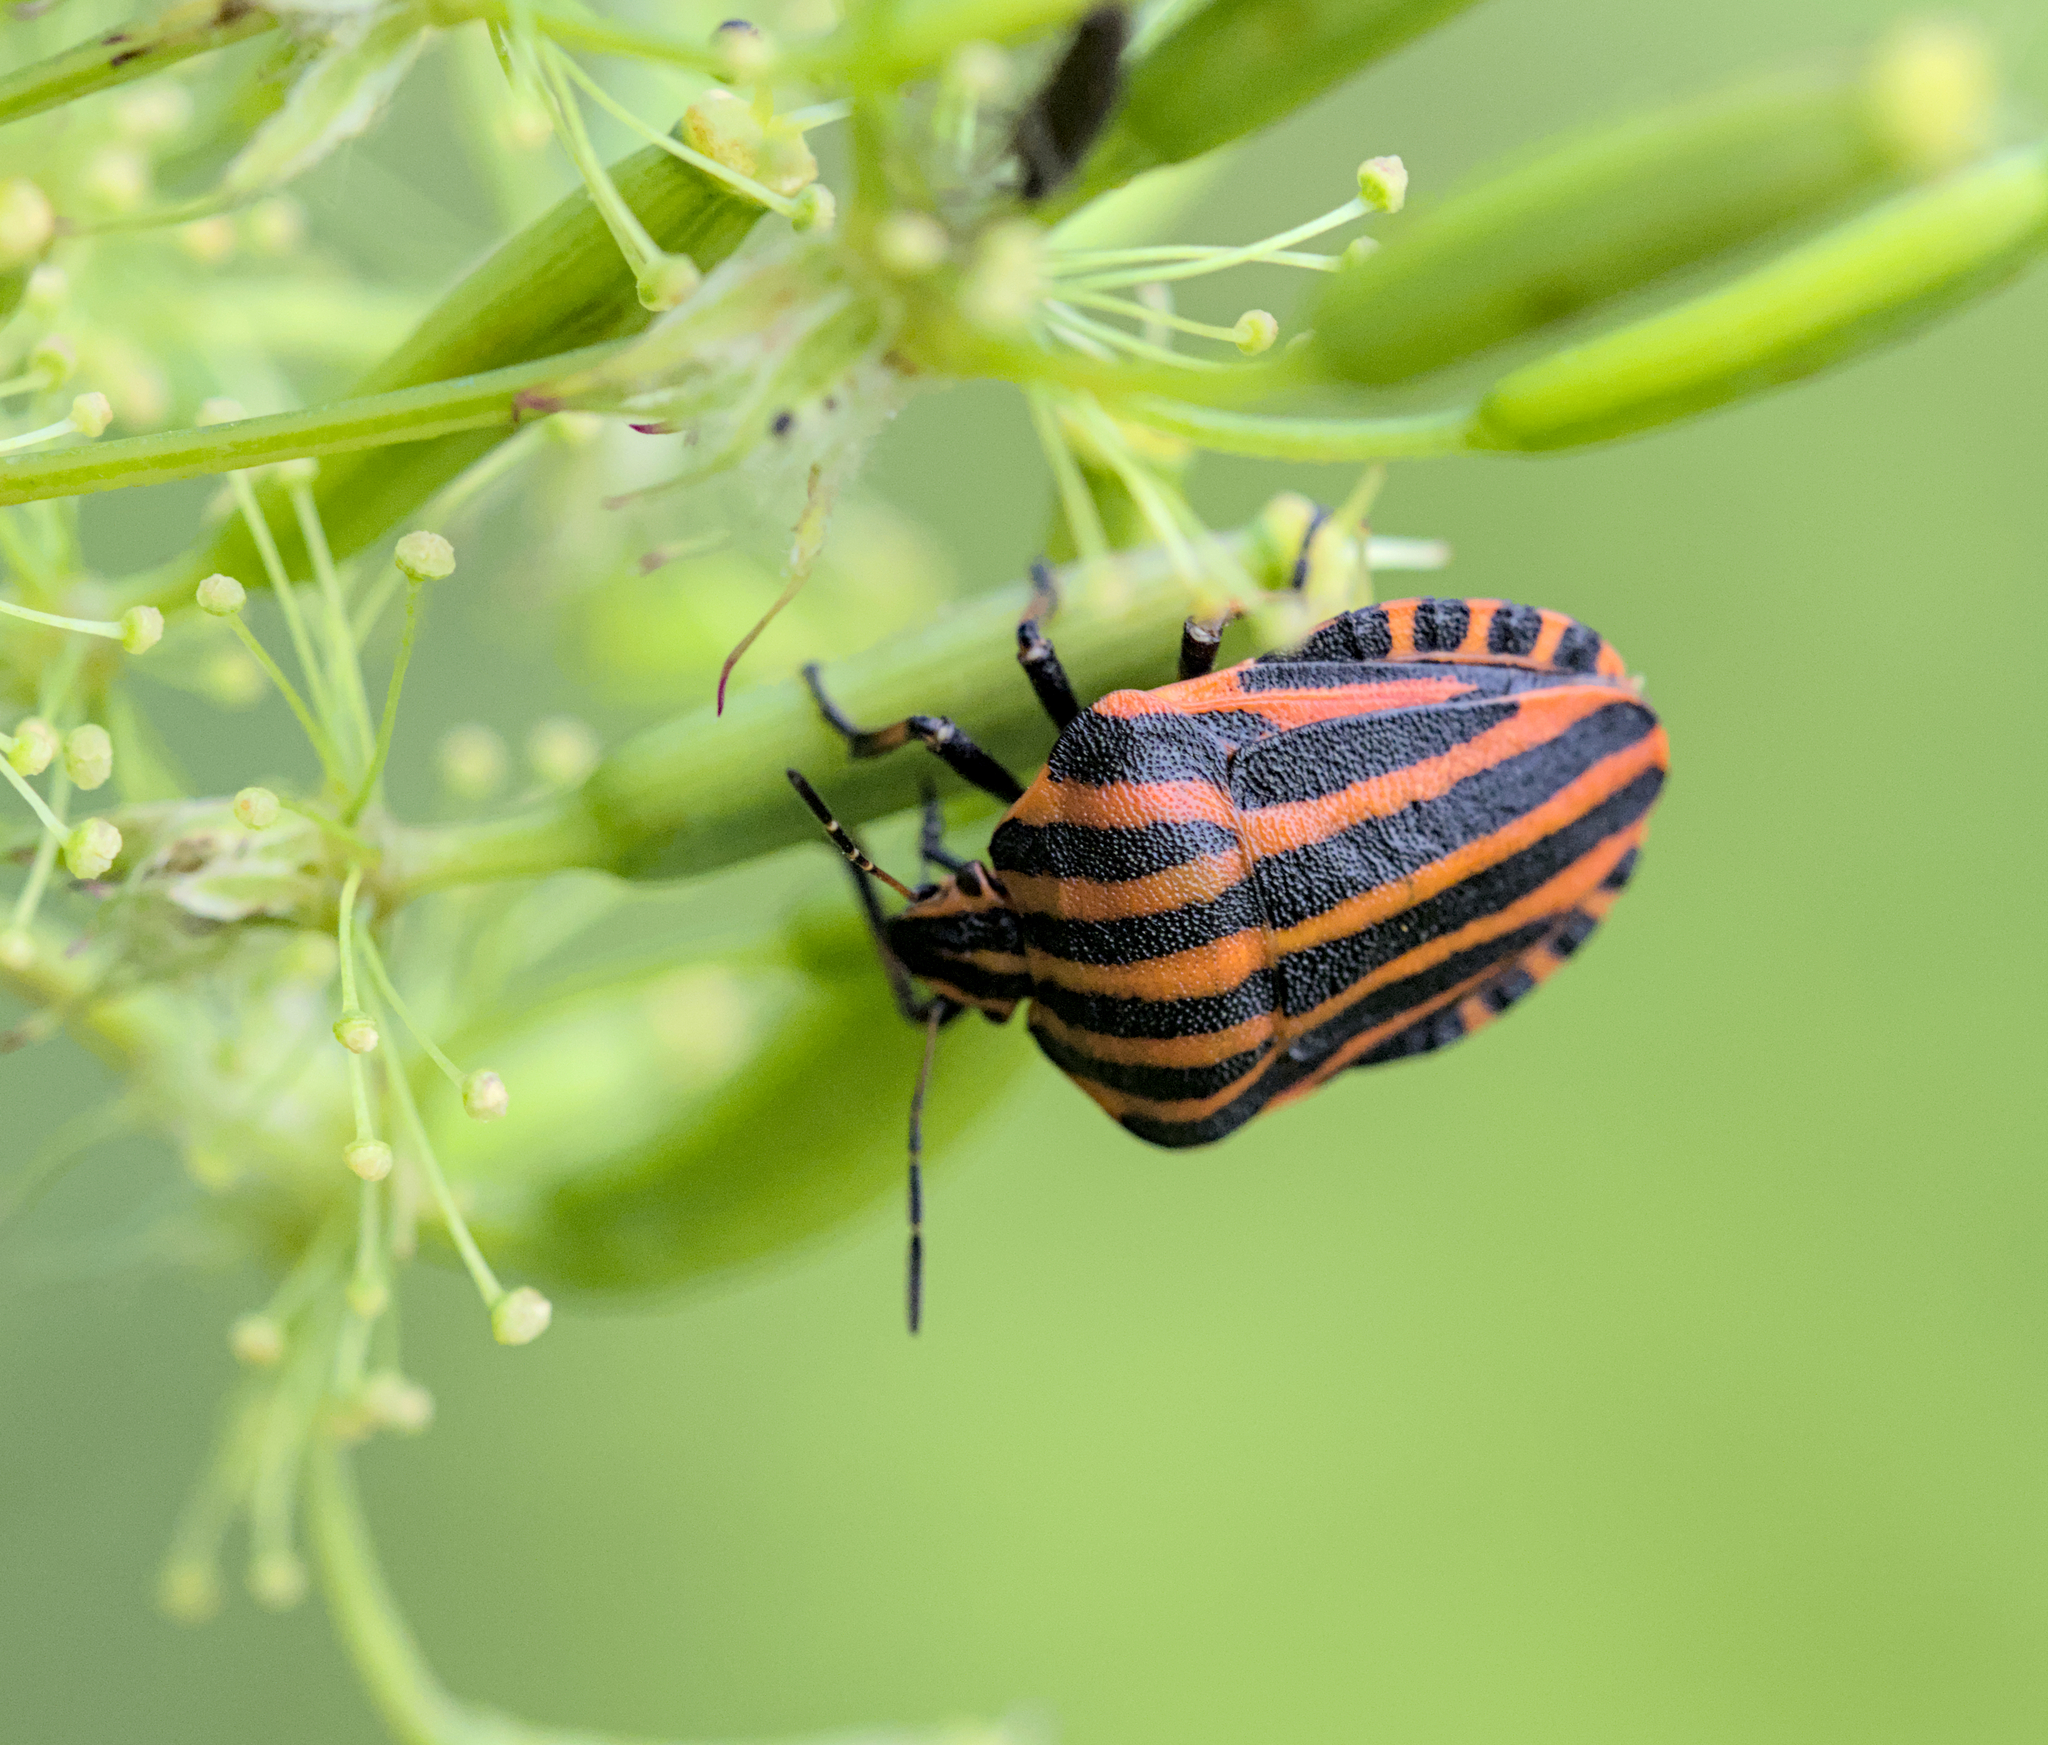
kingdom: Animalia
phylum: Arthropoda
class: Insecta
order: Hemiptera
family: Pentatomidae
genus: Graphosoma
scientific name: Graphosoma italicum
